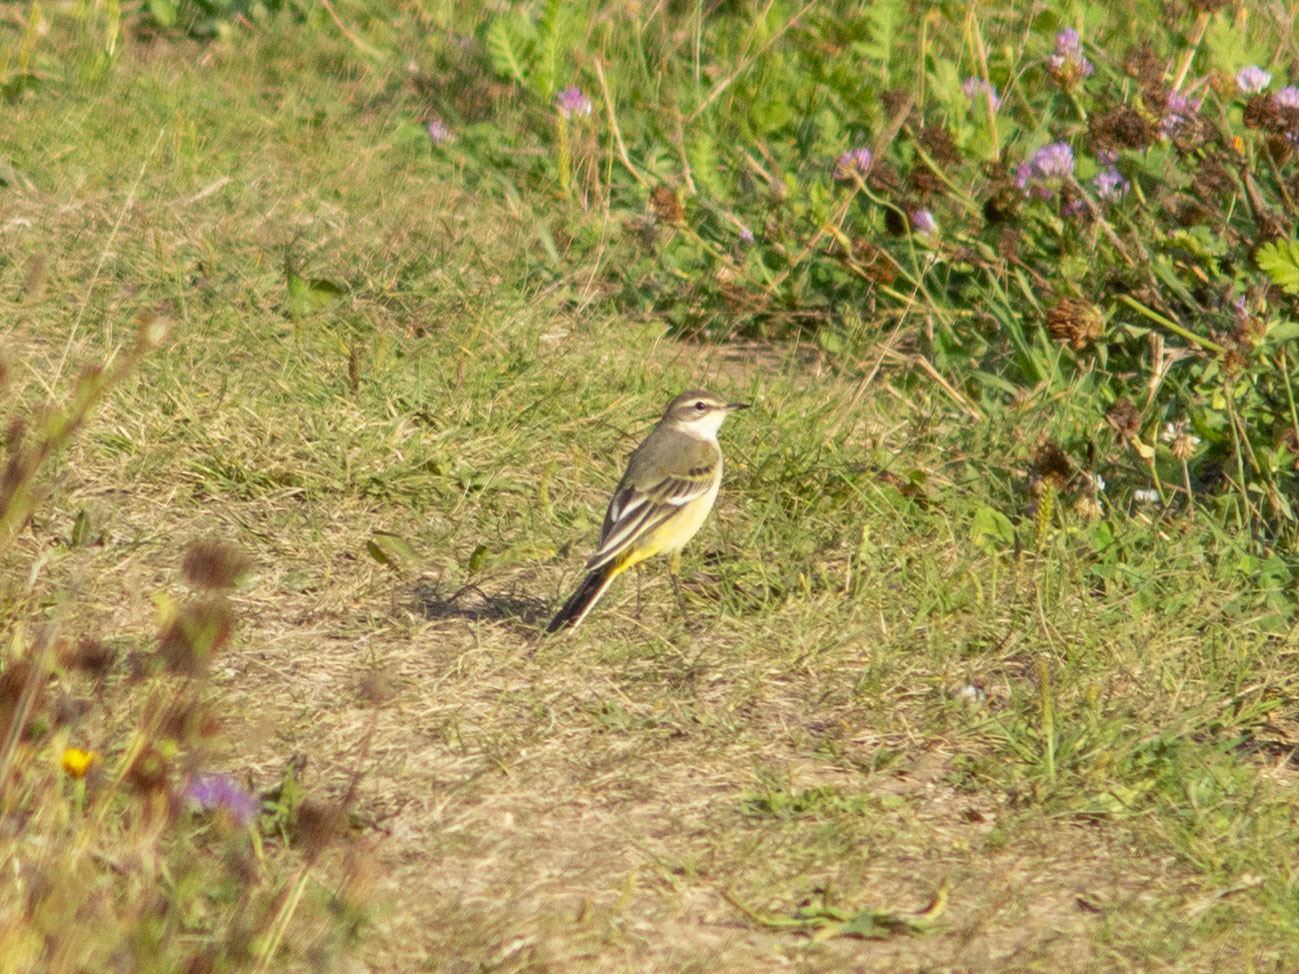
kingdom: Animalia
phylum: Chordata
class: Aves
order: Passeriformes
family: Motacillidae
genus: Motacilla
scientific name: Motacilla flava
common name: Western yellow wagtail
